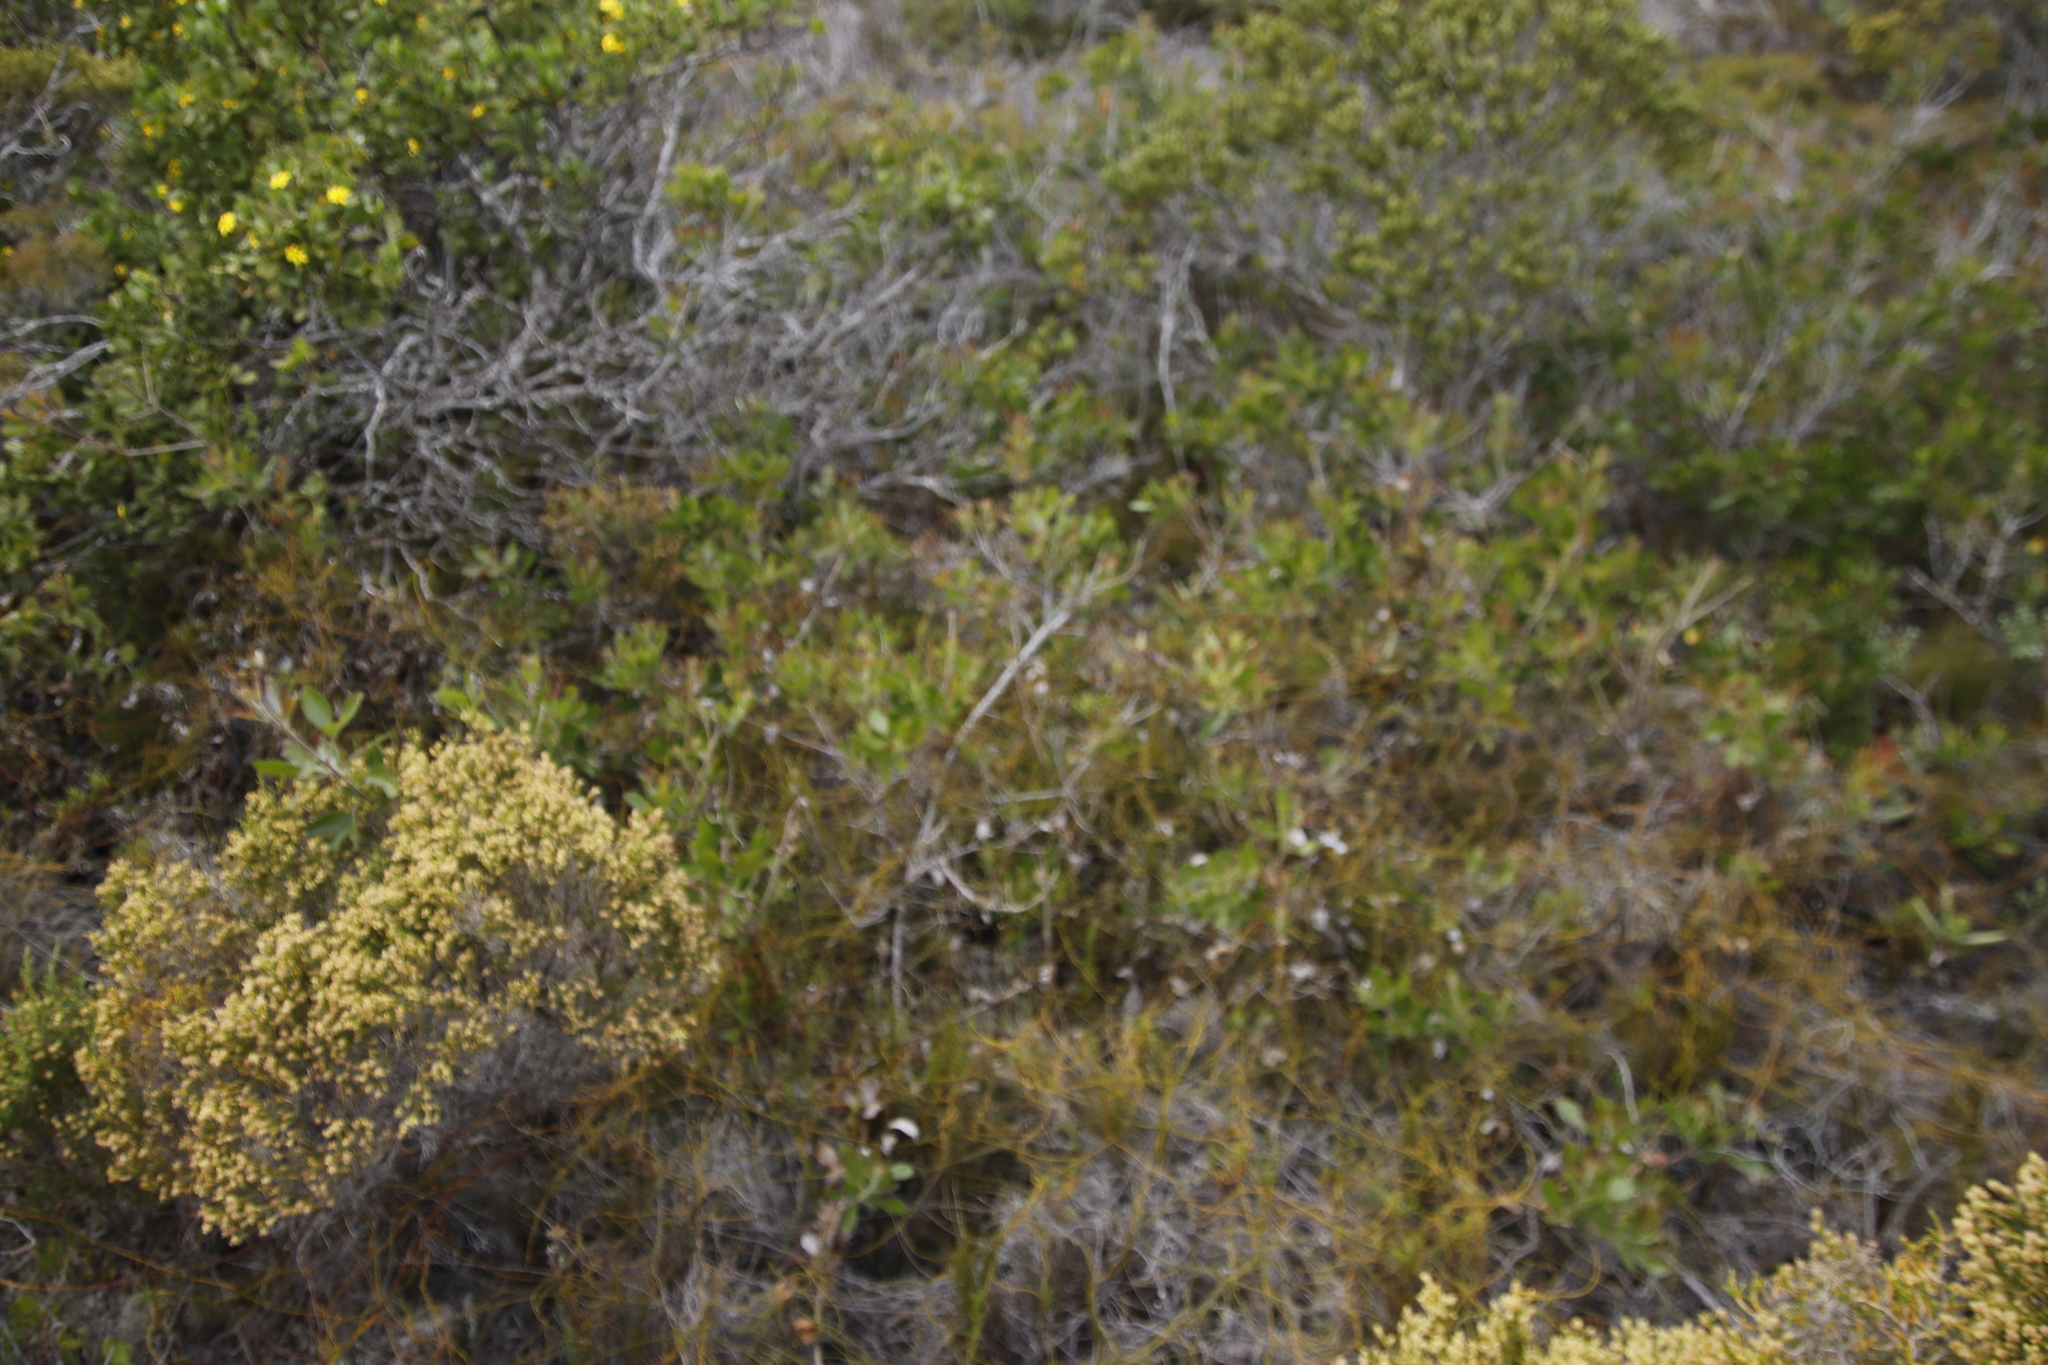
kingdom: Plantae
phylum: Tracheophyta
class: Magnoliopsida
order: Sapindales
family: Anacardiaceae
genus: Searsia
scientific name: Searsia laevigata
